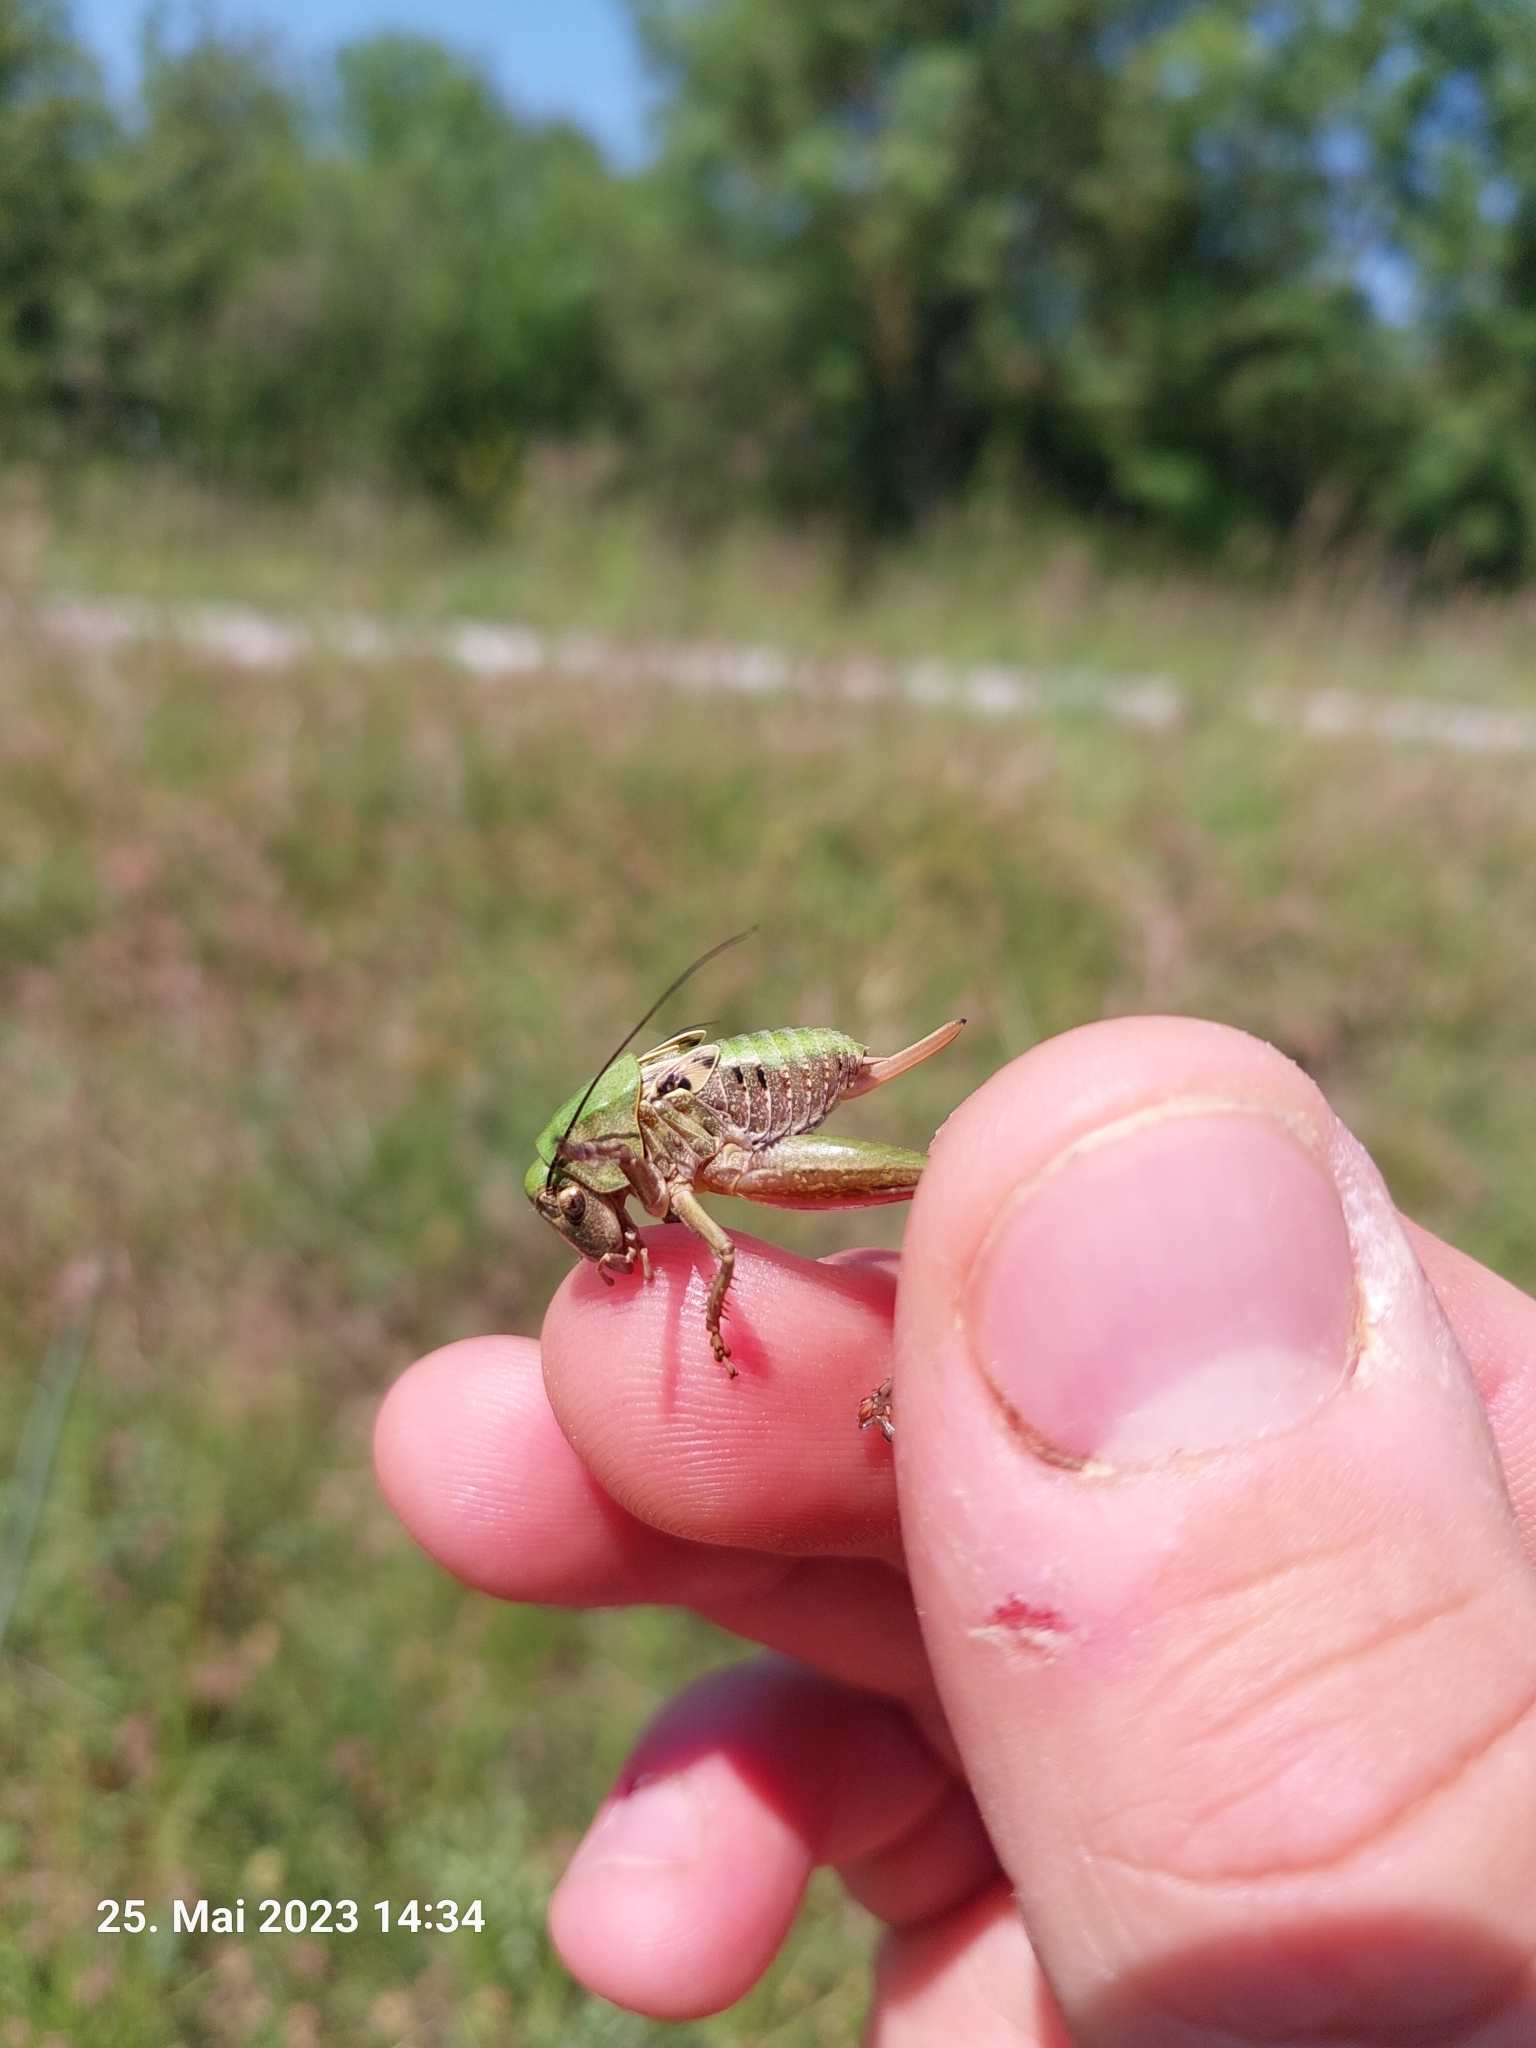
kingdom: Animalia
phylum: Arthropoda
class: Insecta
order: Orthoptera
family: Tettigoniidae
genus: Decticus
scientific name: Decticus verrucivorus
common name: Wart-biter
